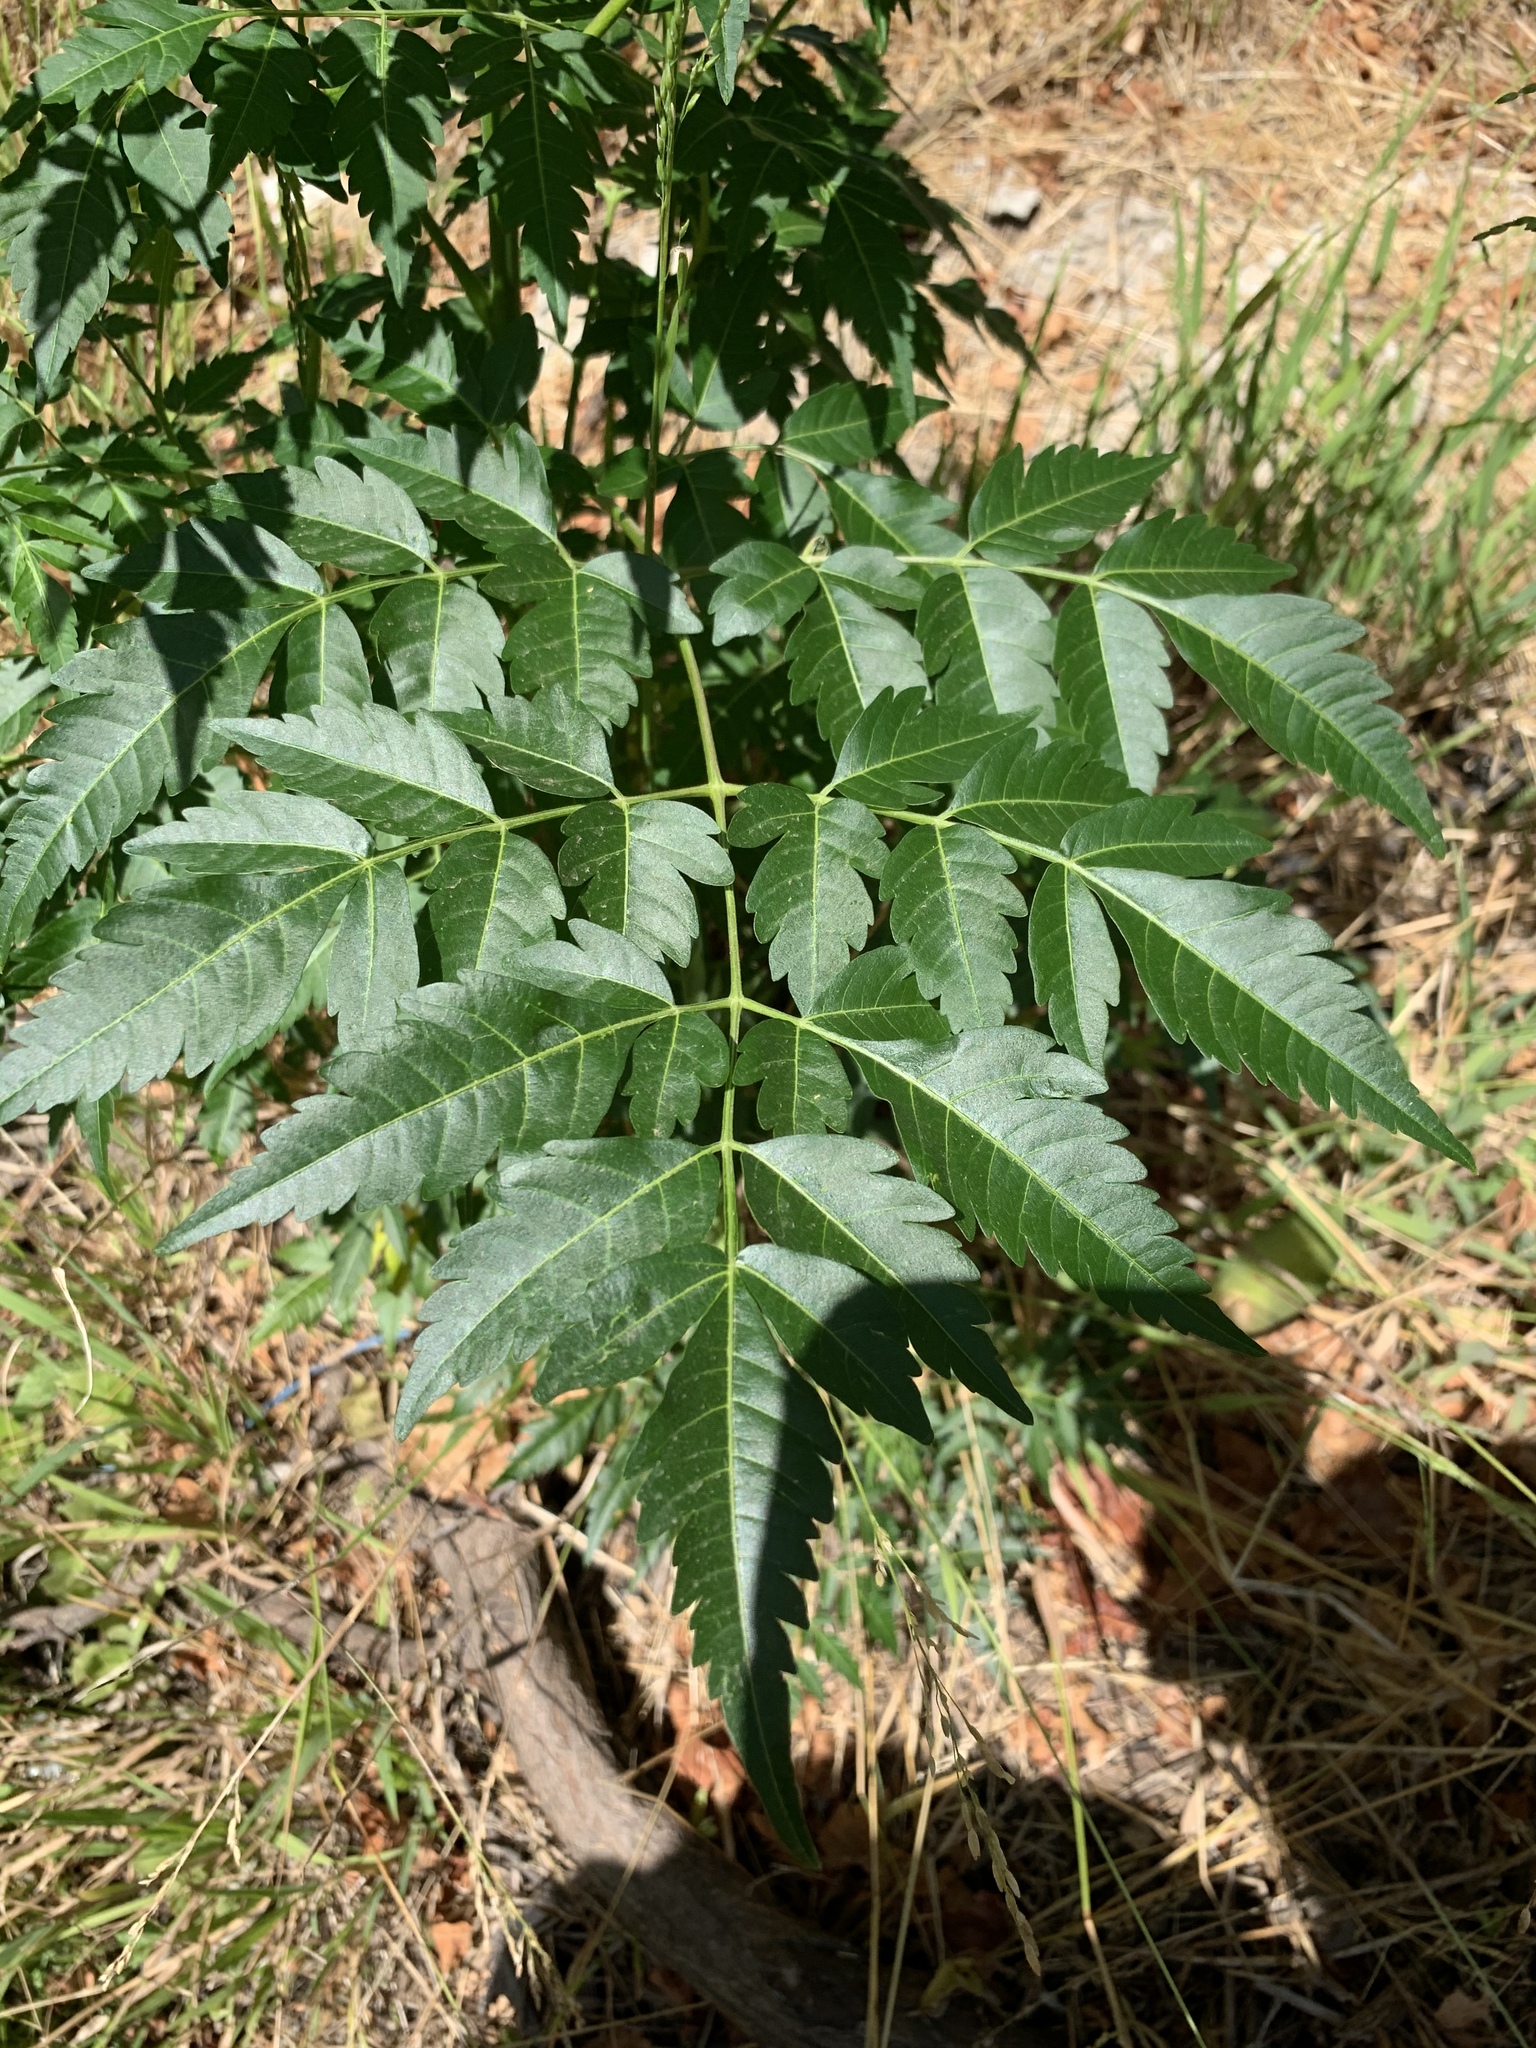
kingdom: Plantae
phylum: Tracheophyta
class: Magnoliopsida
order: Sapindales
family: Meliaceae
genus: Melia
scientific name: Melia azedarach
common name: Chinaberrytree
